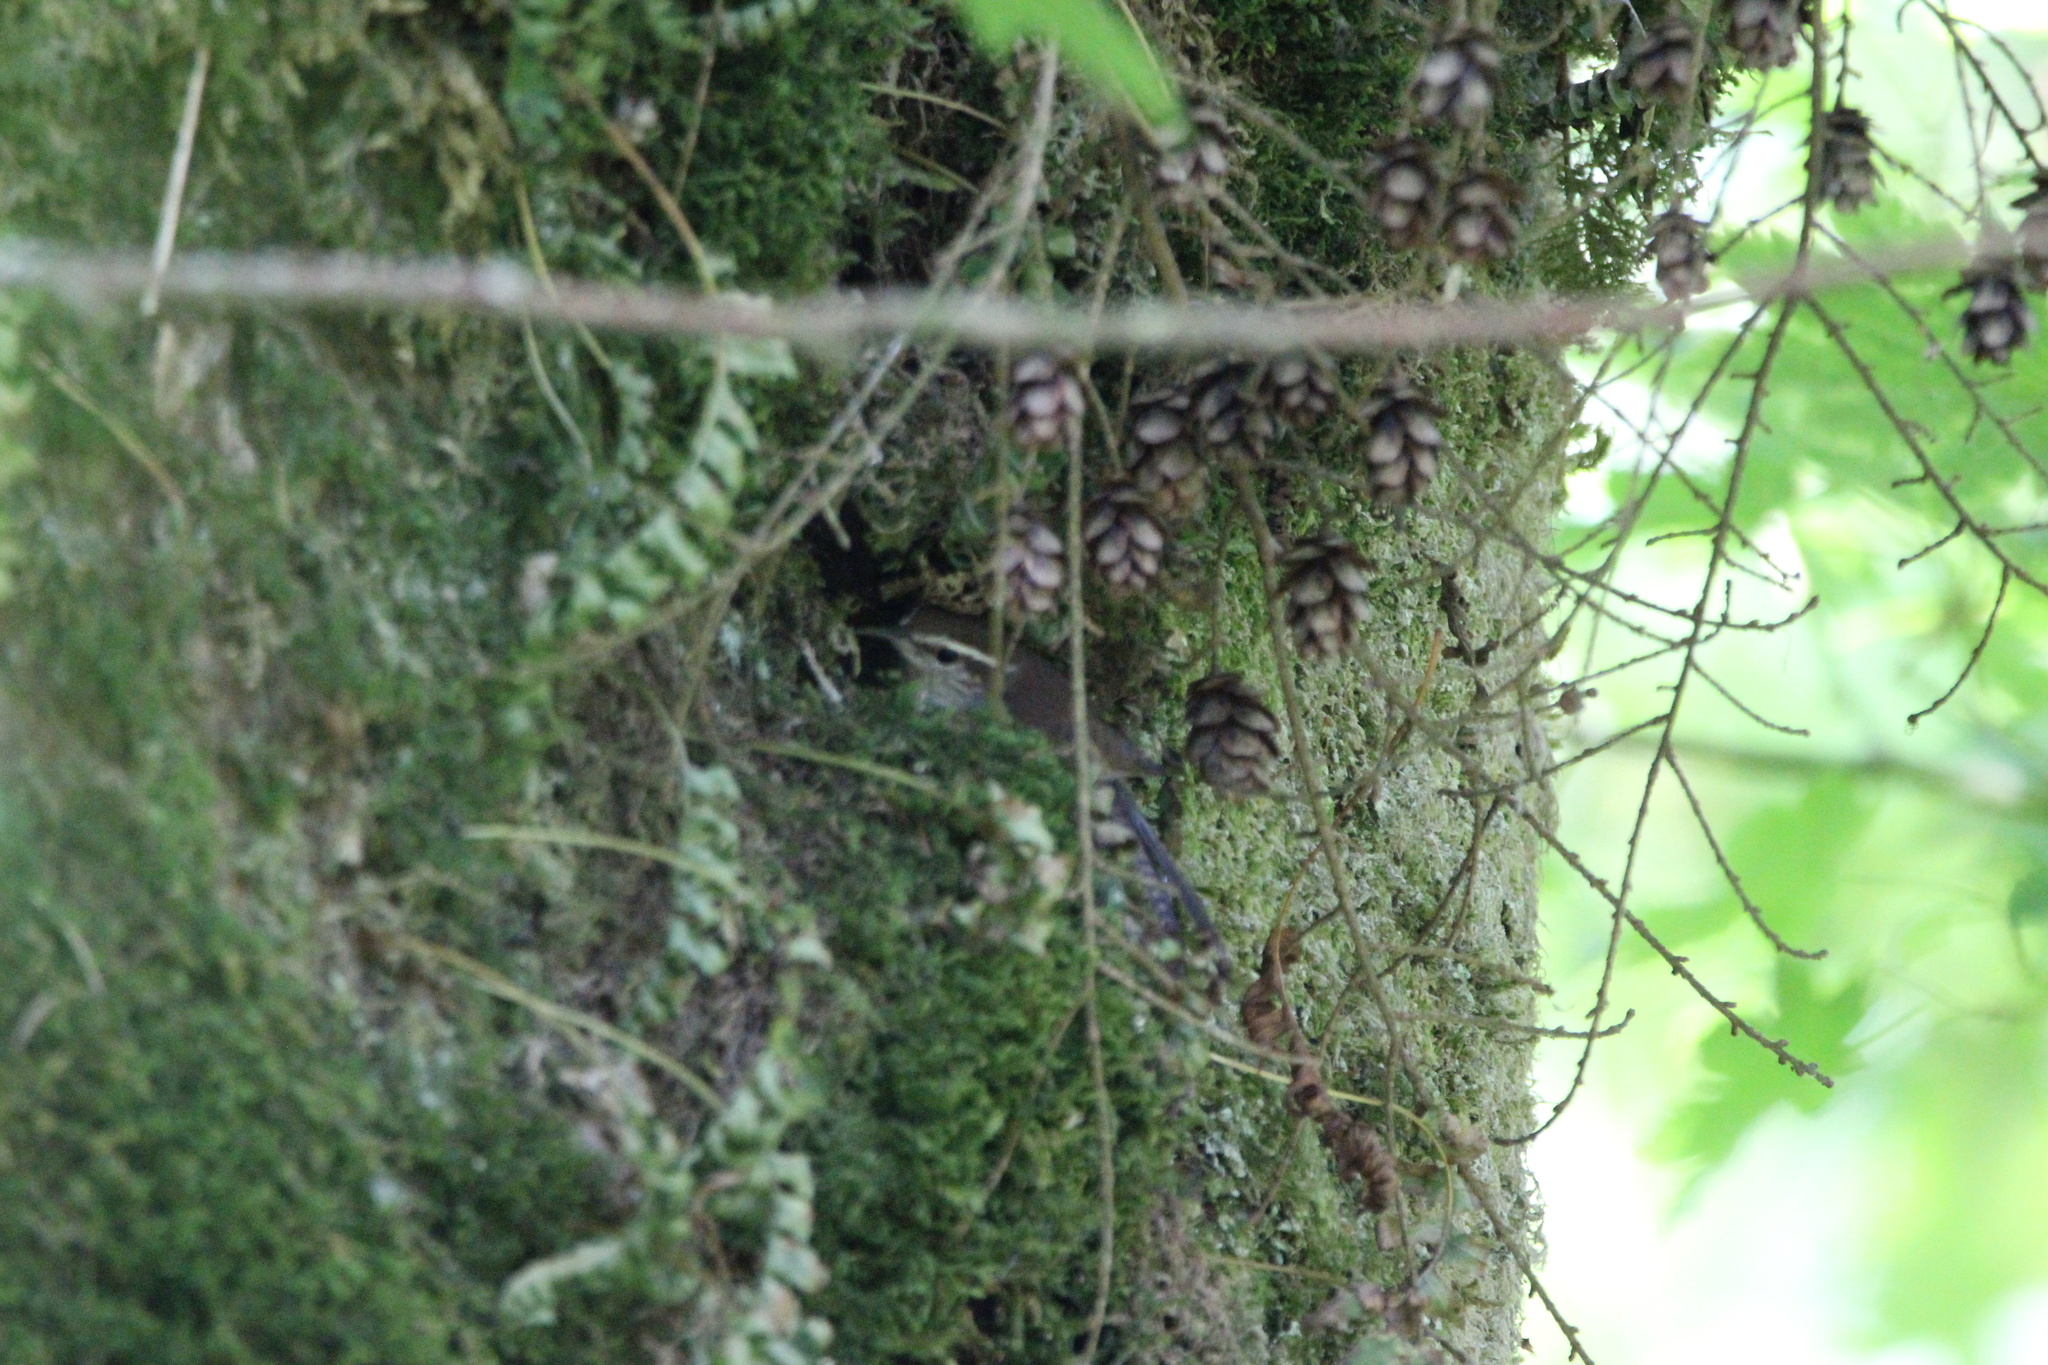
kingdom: Animalia
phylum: Chordata
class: Aves
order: Passeriformes
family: Troglodytidae
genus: Thryomanes
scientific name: Thryomanes bewickii
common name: Bewick's wren
